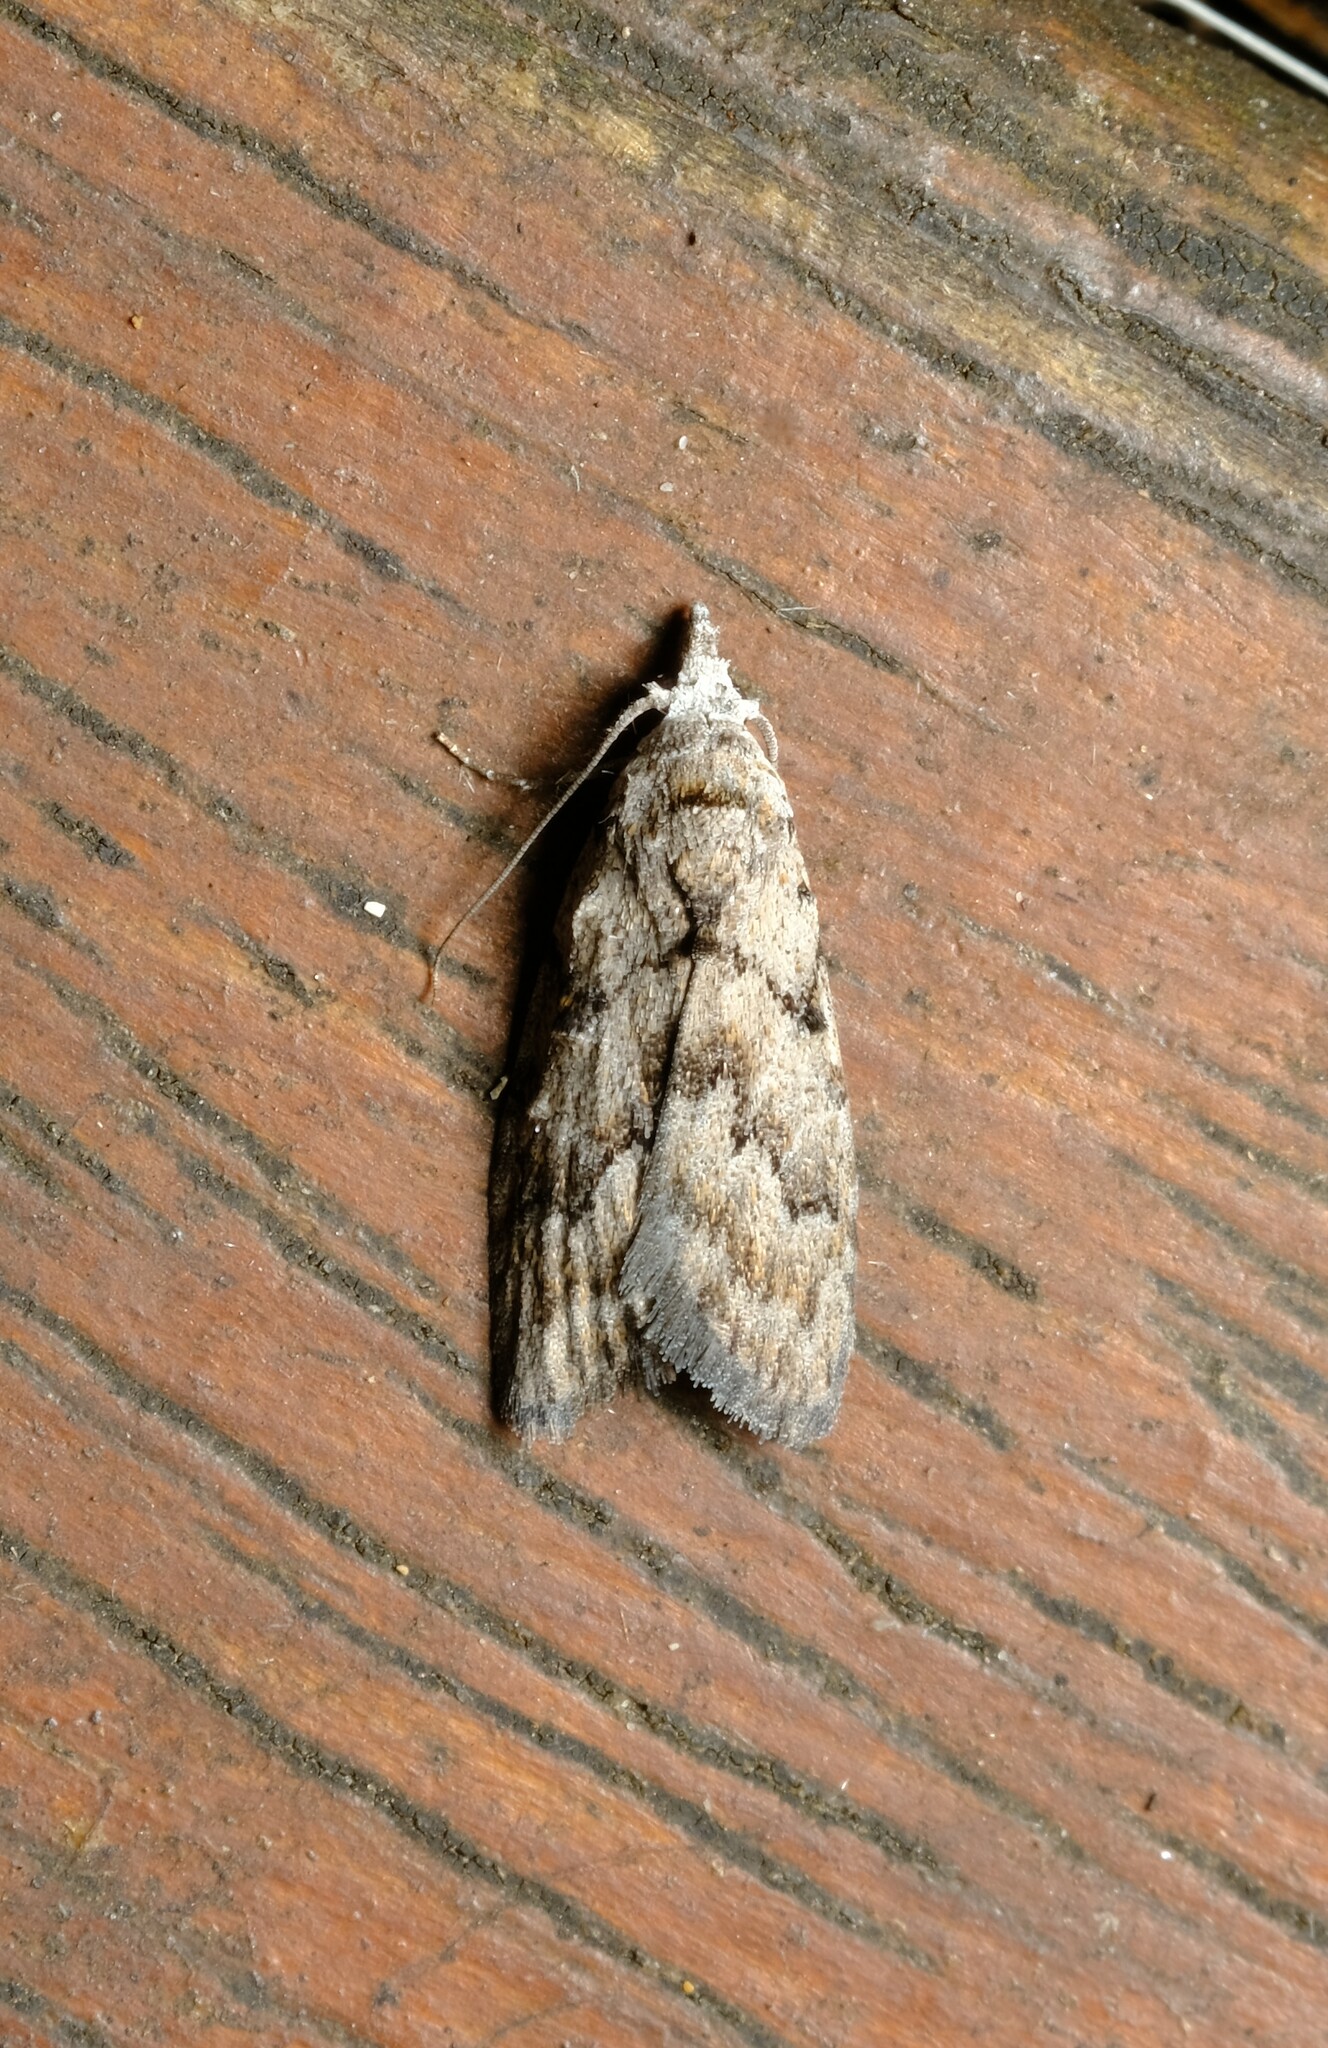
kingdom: Animalia
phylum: Arthropoda
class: Insecta
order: Lepidoptera
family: Nolidae
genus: Nola
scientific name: Nola cycota
